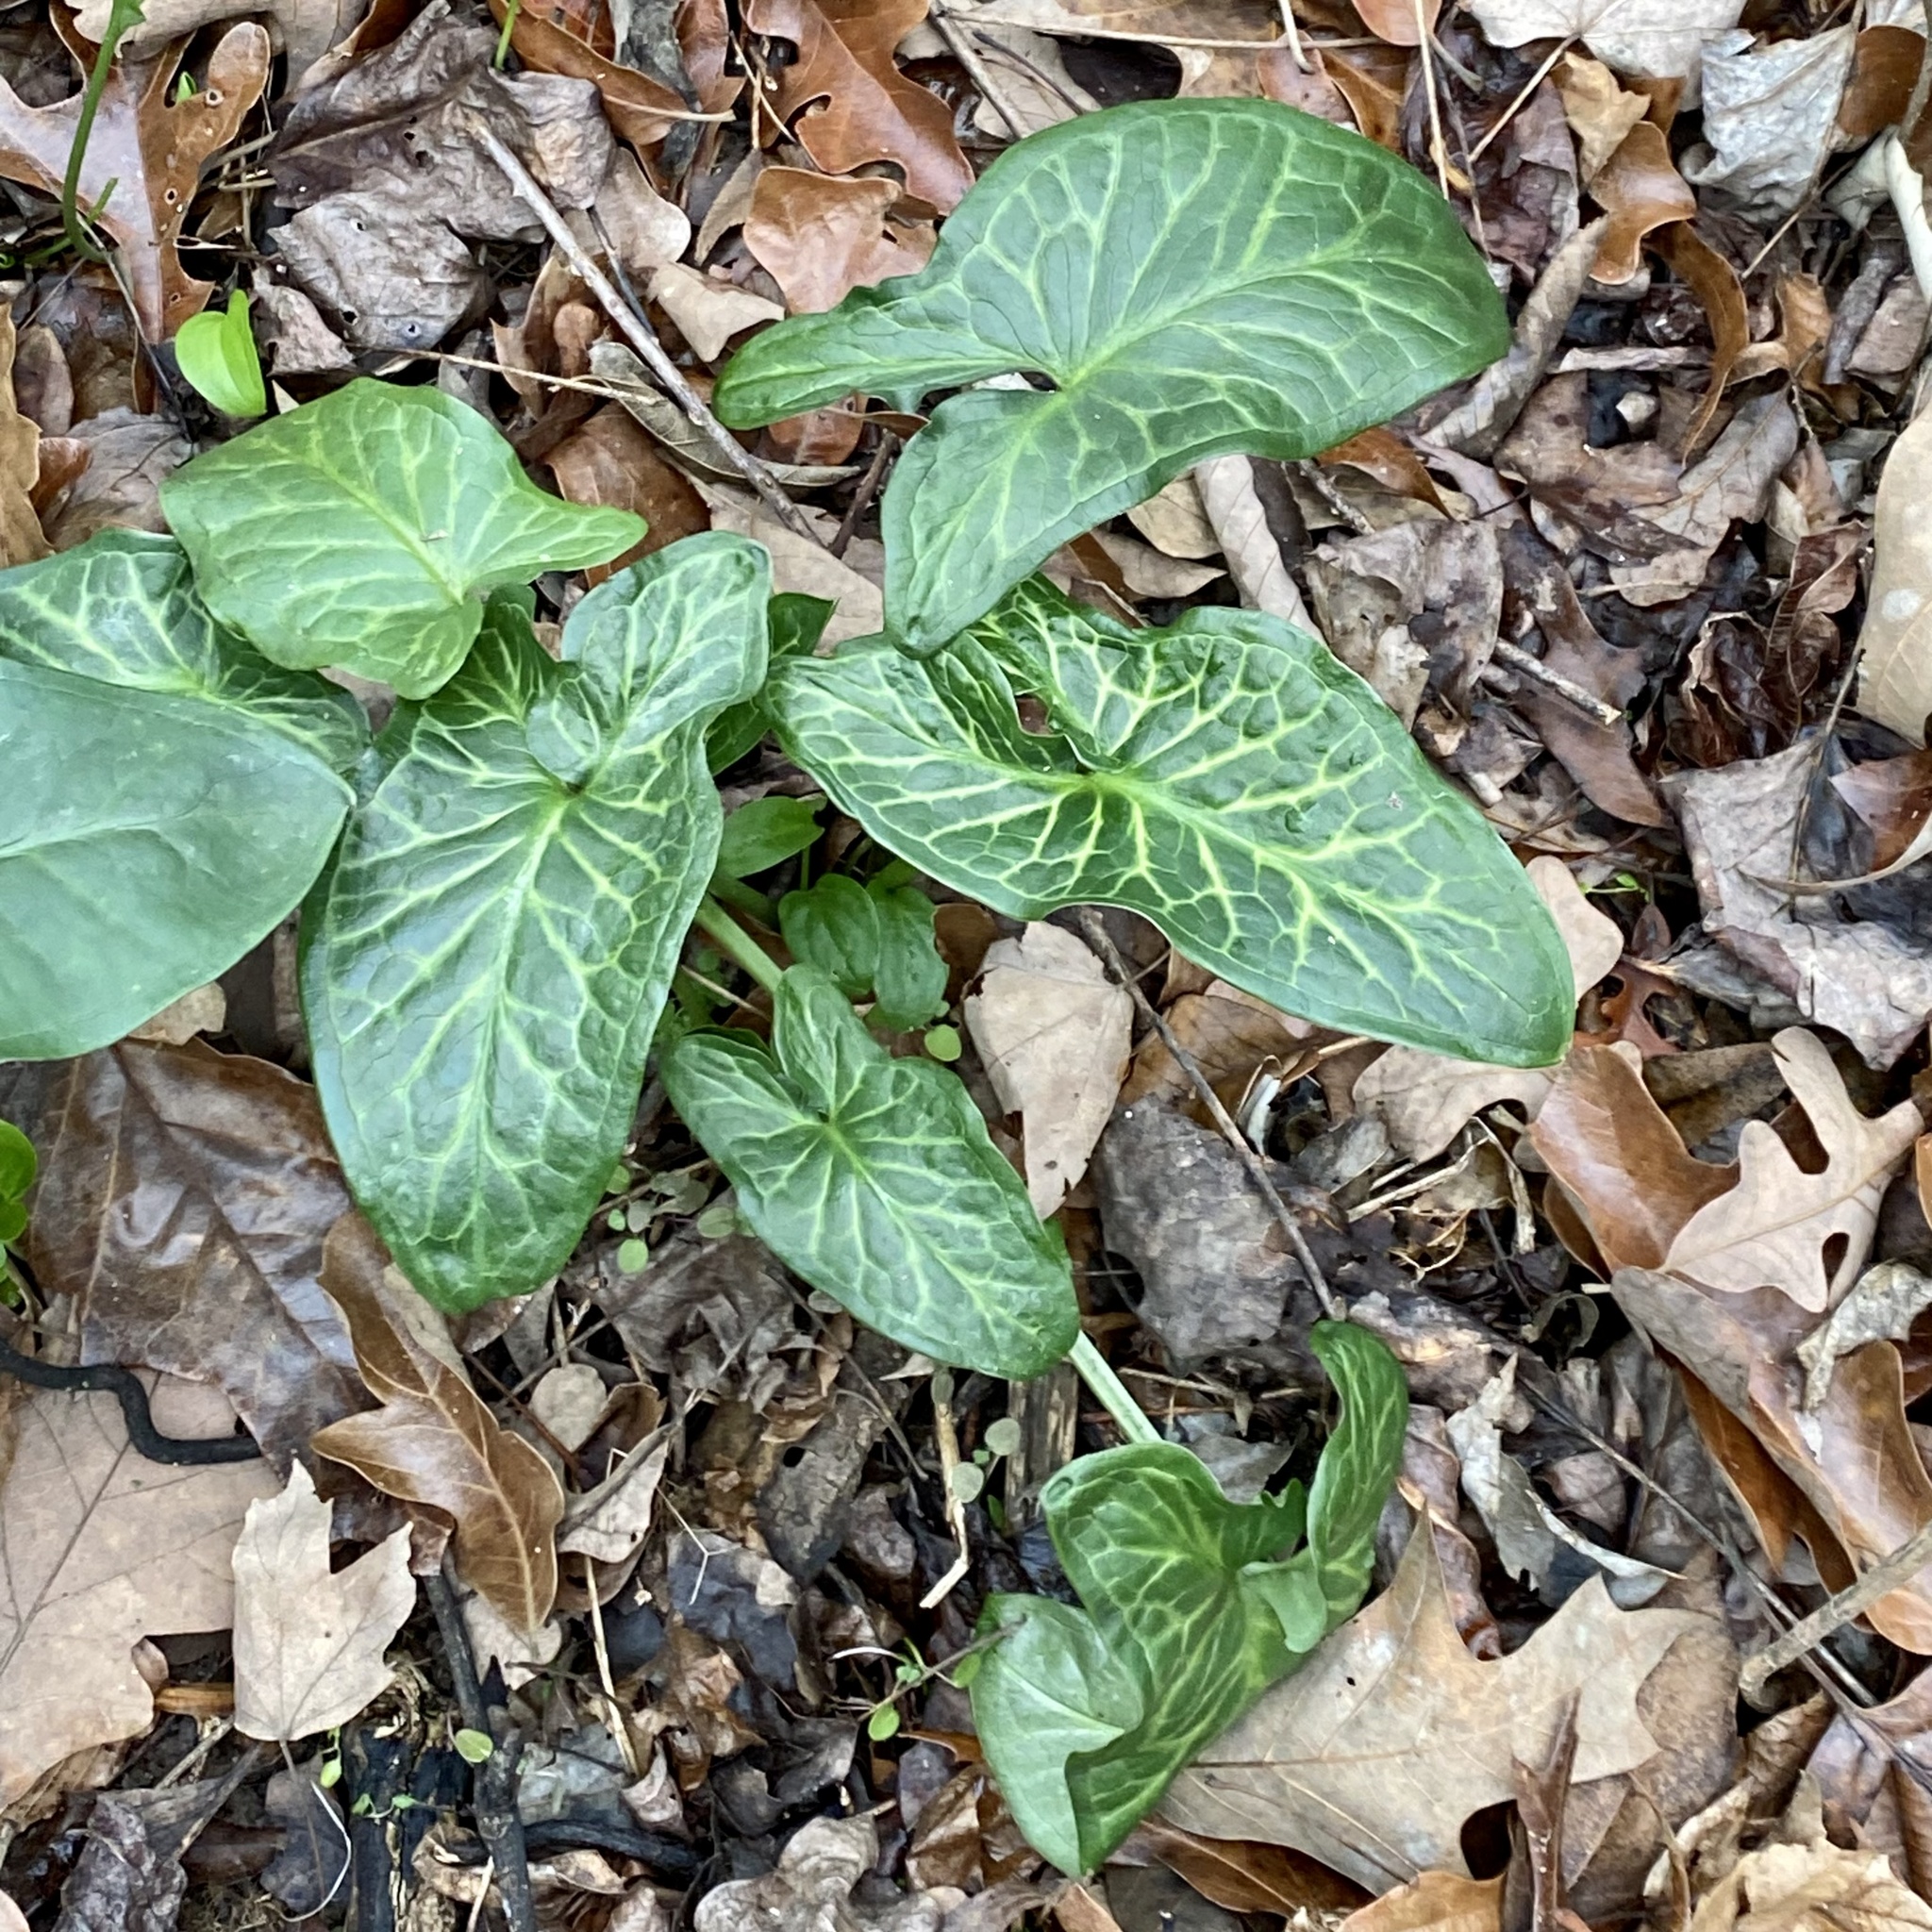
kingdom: Plantae
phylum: Tracheophyta
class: Liliopsida
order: Alismatales
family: Araceae
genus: Arum
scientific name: Arum italicum
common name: Italian lords-and-ladies
